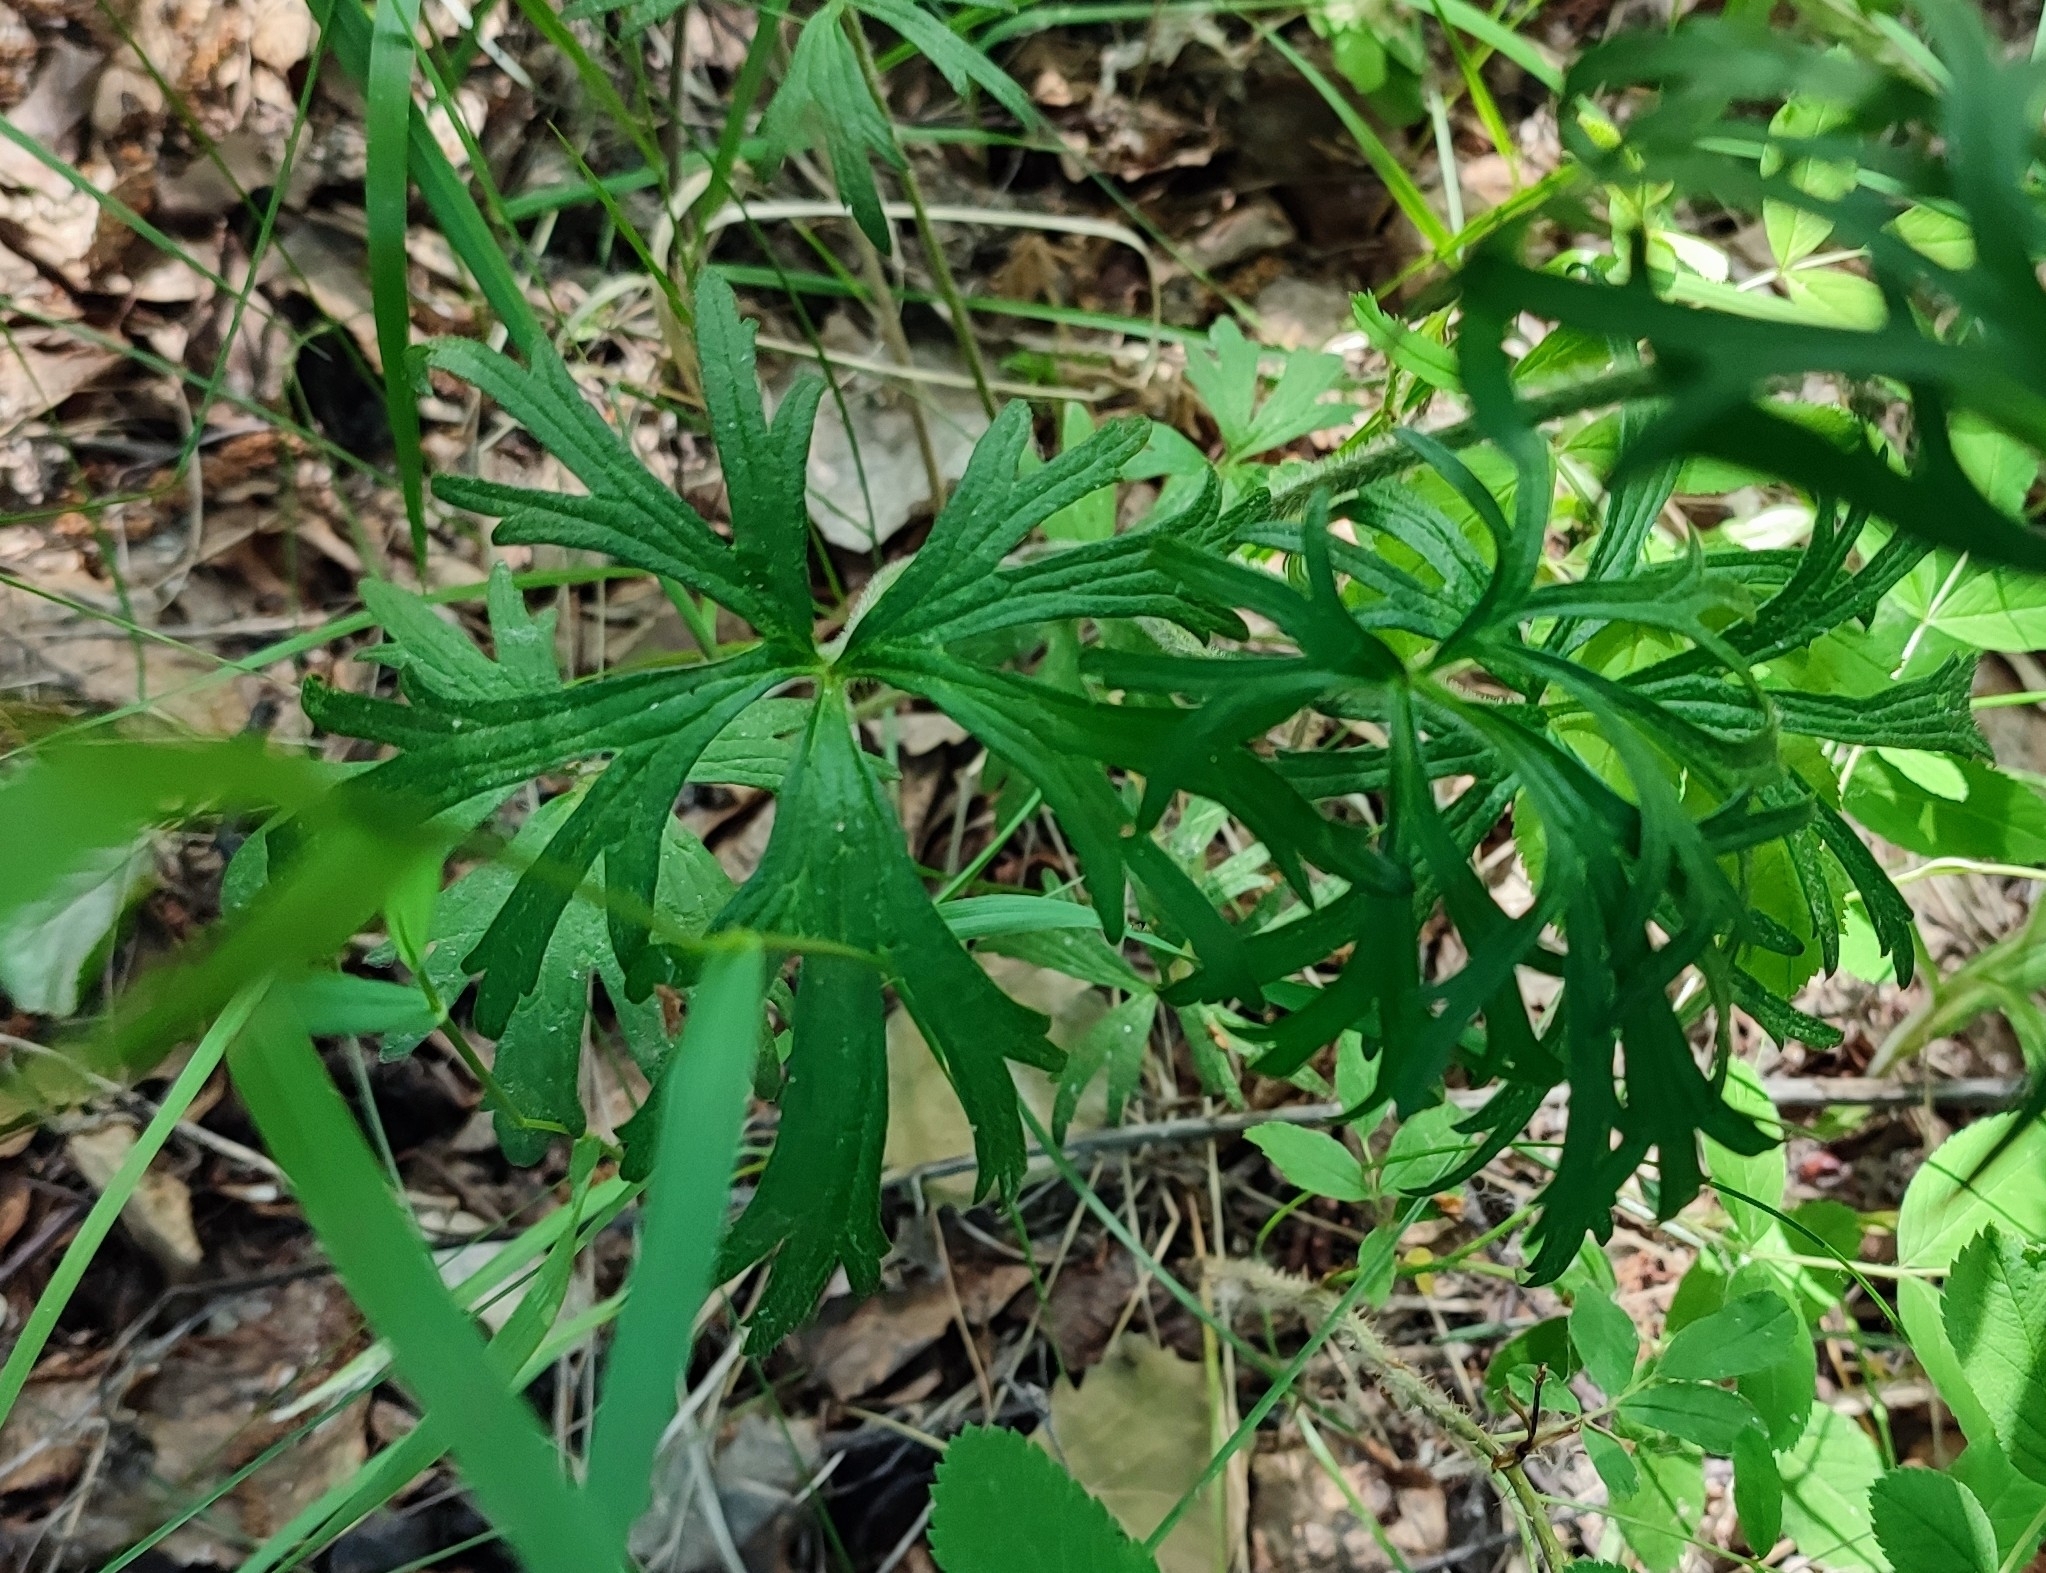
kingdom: Plantae
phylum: Tracheophyta
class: Magnoliopsida
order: Ranunculales
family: Ranunculaceae
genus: Ranunculus
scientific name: Ranunculus polyanthemos
